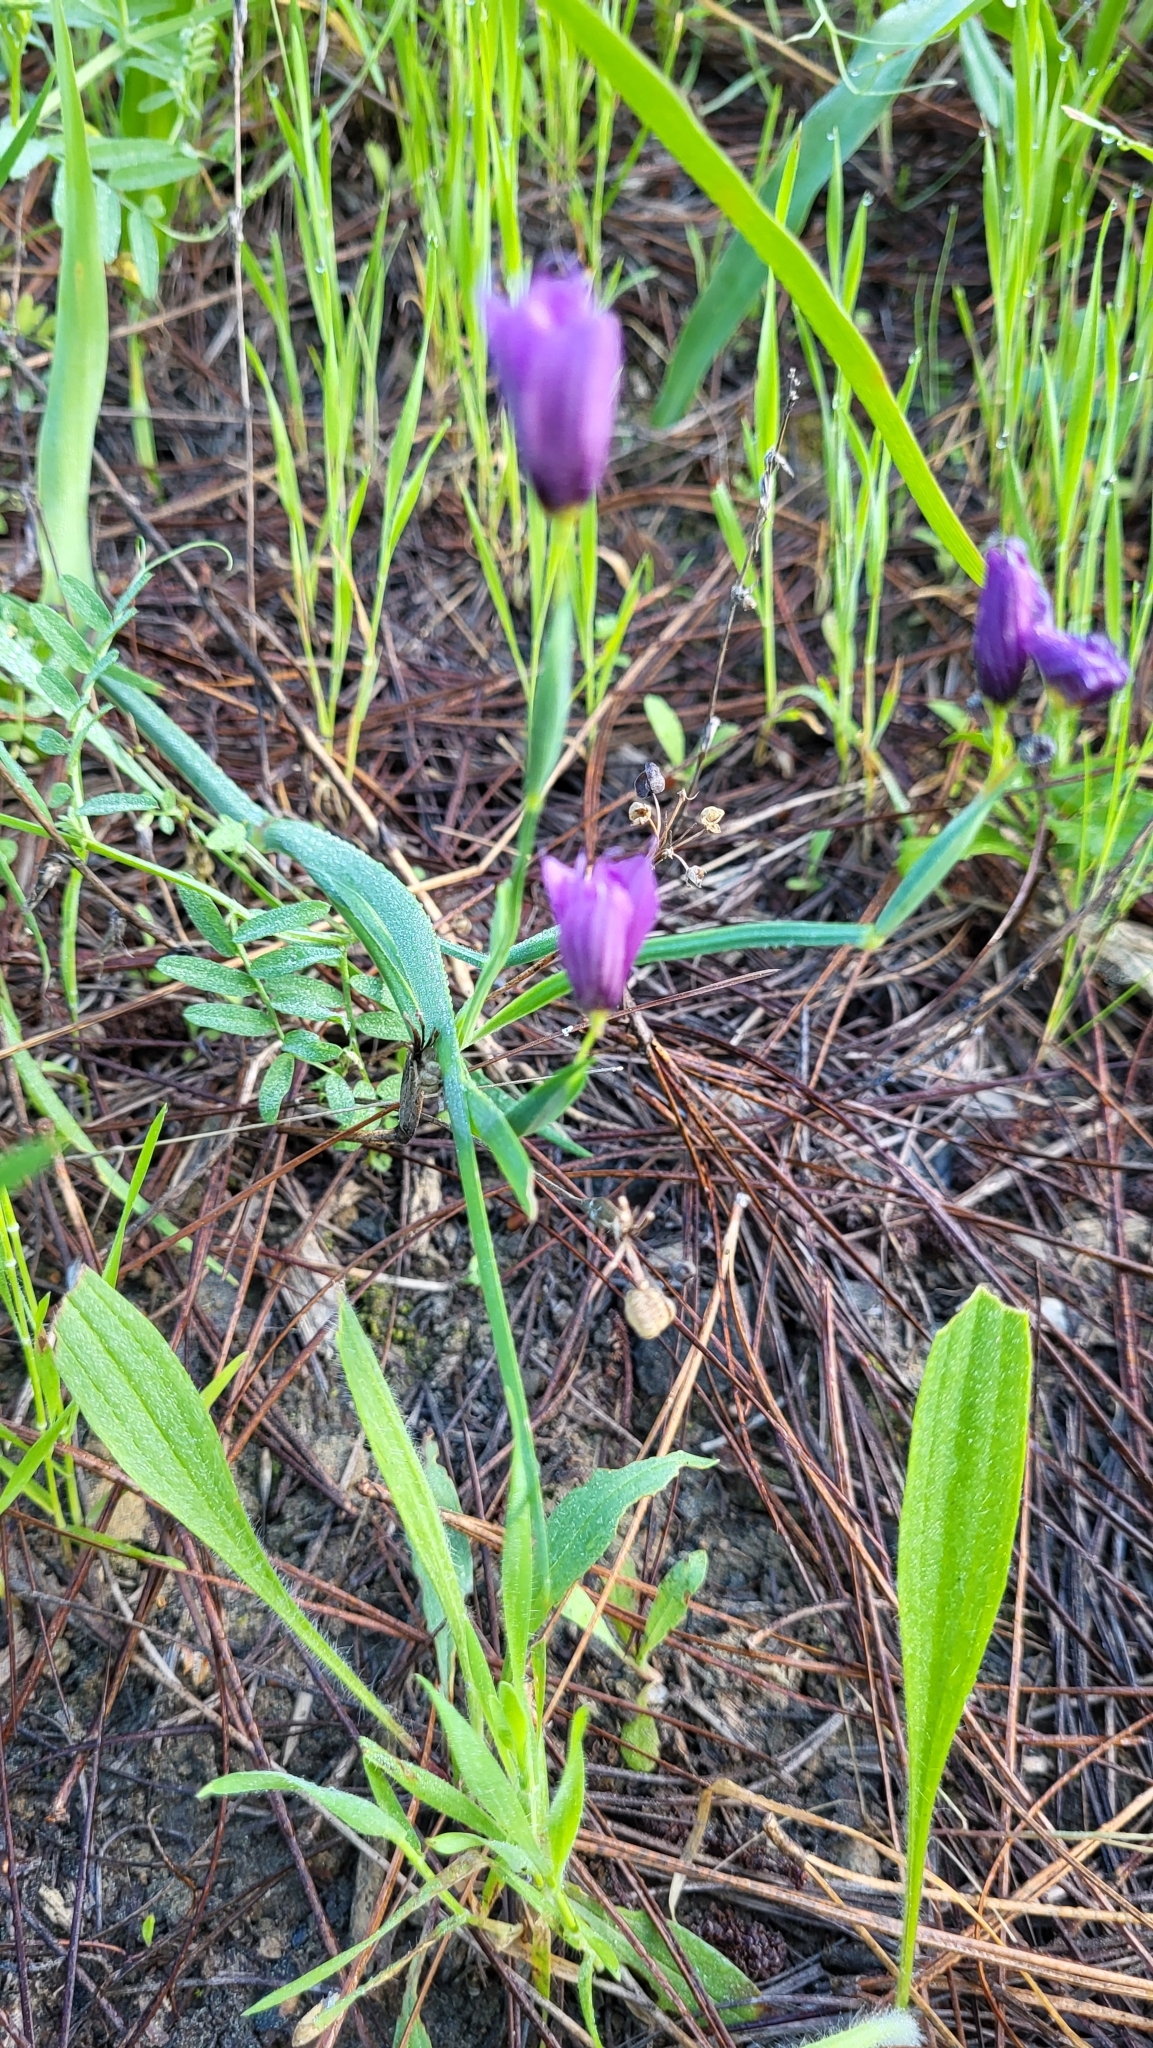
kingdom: Plantae
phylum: Tracheophyta
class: Liliopsida
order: Asparagales
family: Iridaceae
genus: Sisyrinchium
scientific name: Sisyrinchium bellum
